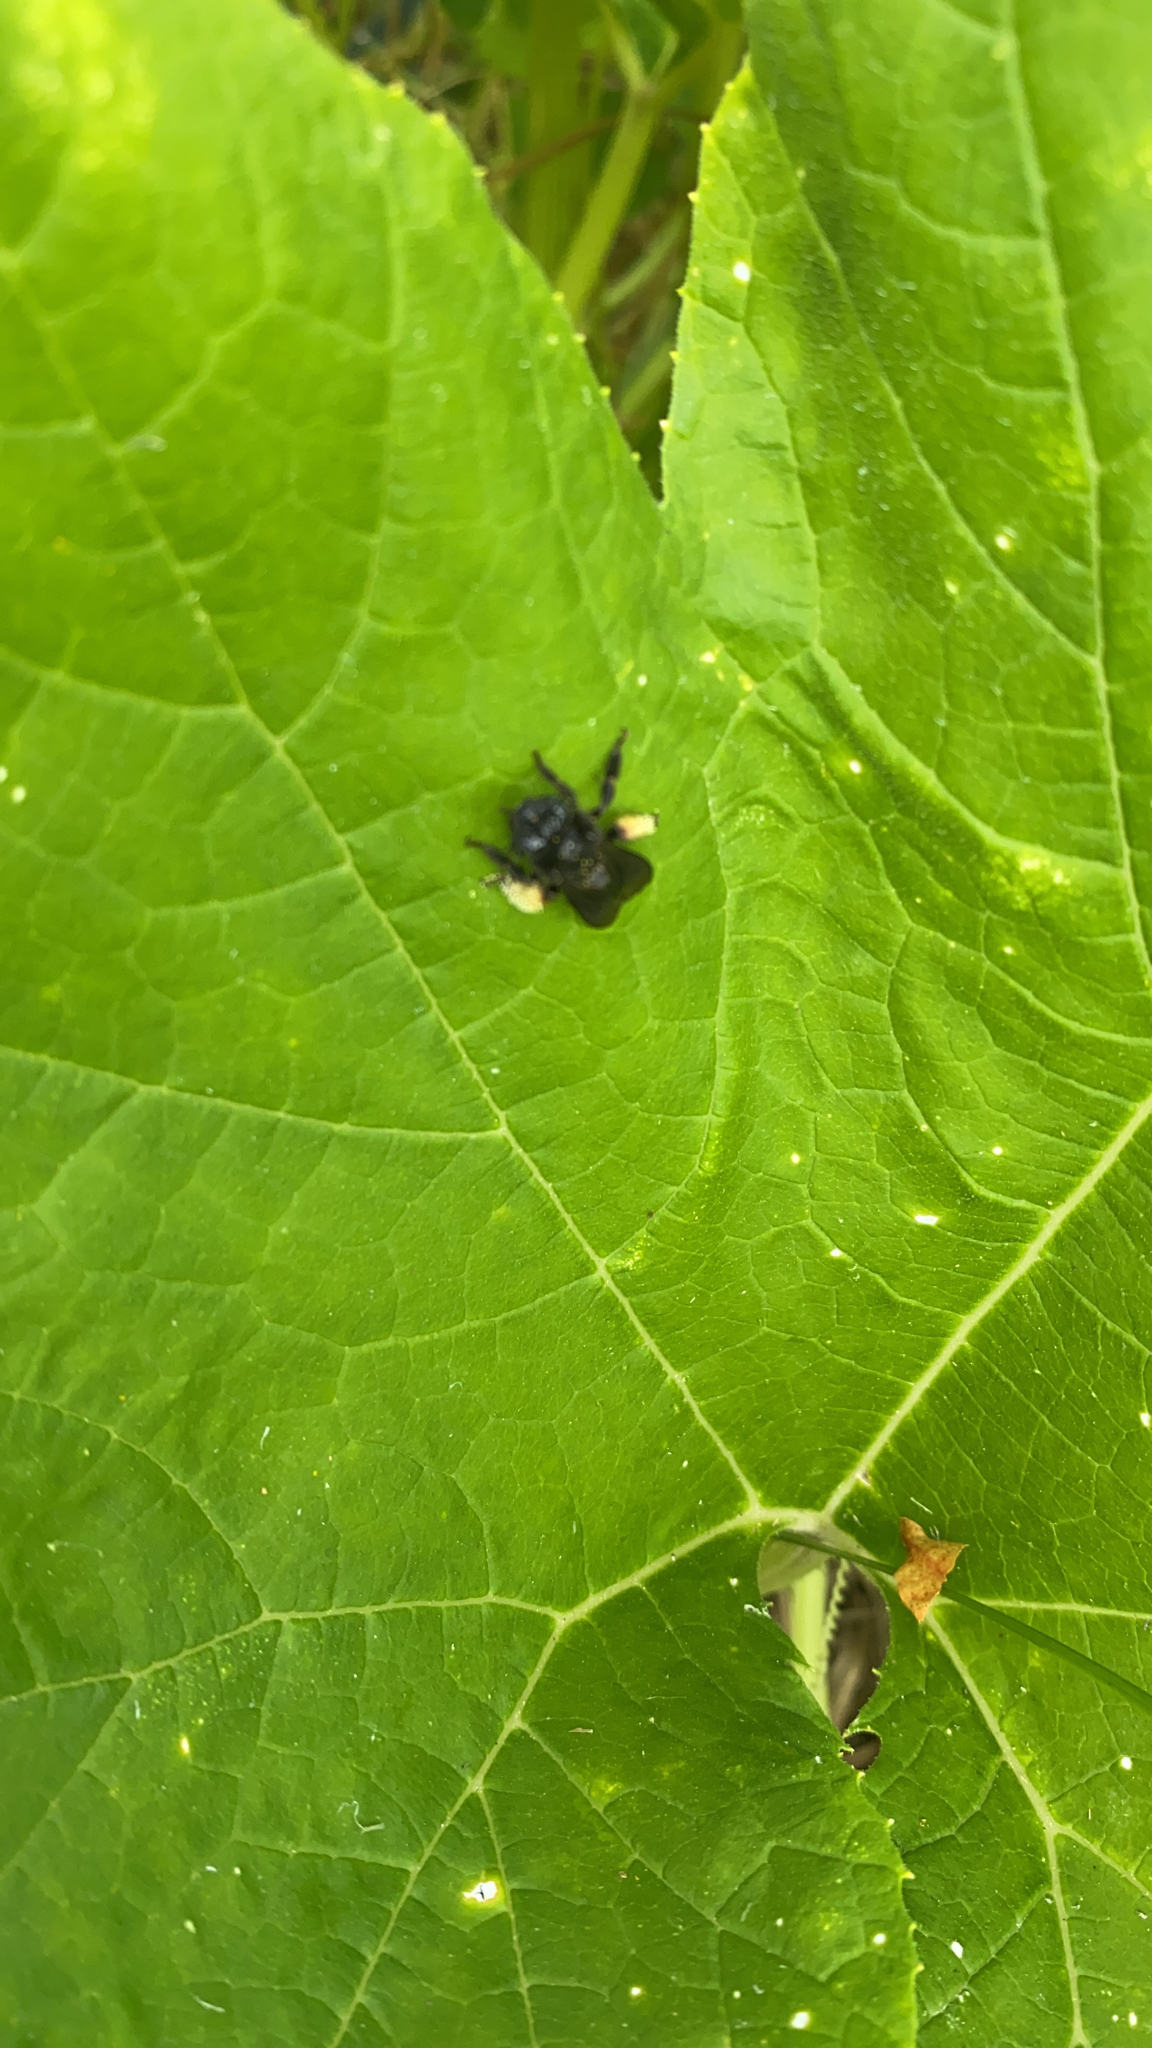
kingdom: Animalia
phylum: Arthropoda
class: Insecta
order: Hymenoptera
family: Apidae
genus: Melissodes
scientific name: Melissodes bimaculatus
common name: Two-spotted long-horned bee
